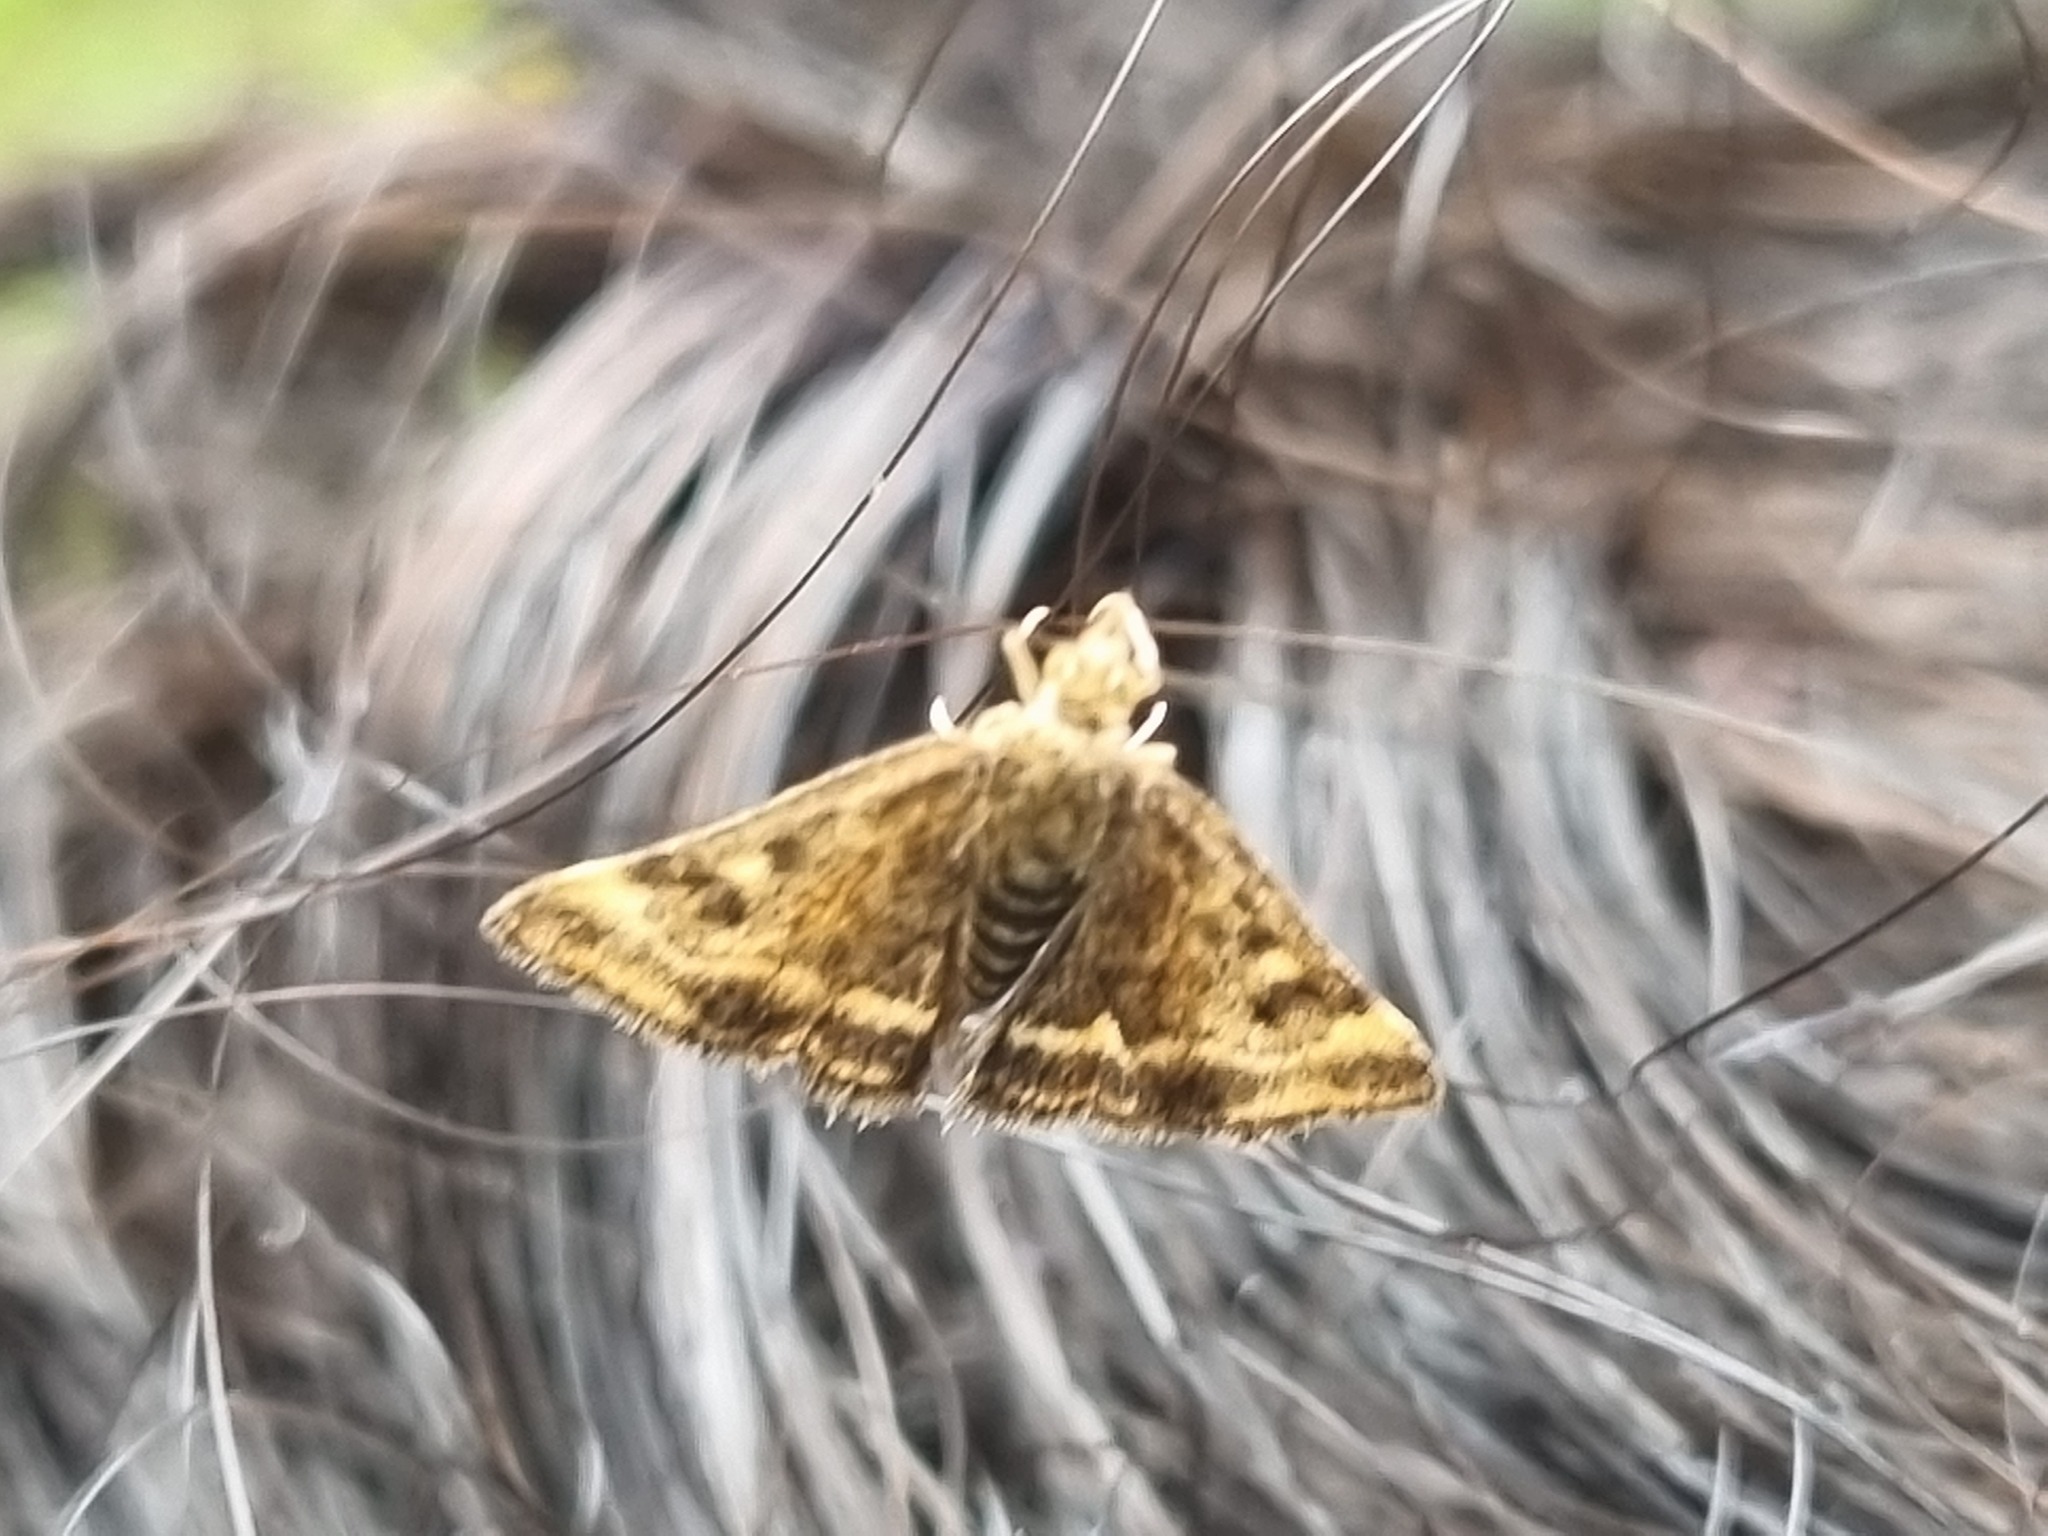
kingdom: Animalia
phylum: Arthropoda
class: Insecta
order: Lepidoptera
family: Crambidae
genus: Pyrausta
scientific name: Pyrausta despicata
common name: Straw-barred pearl
